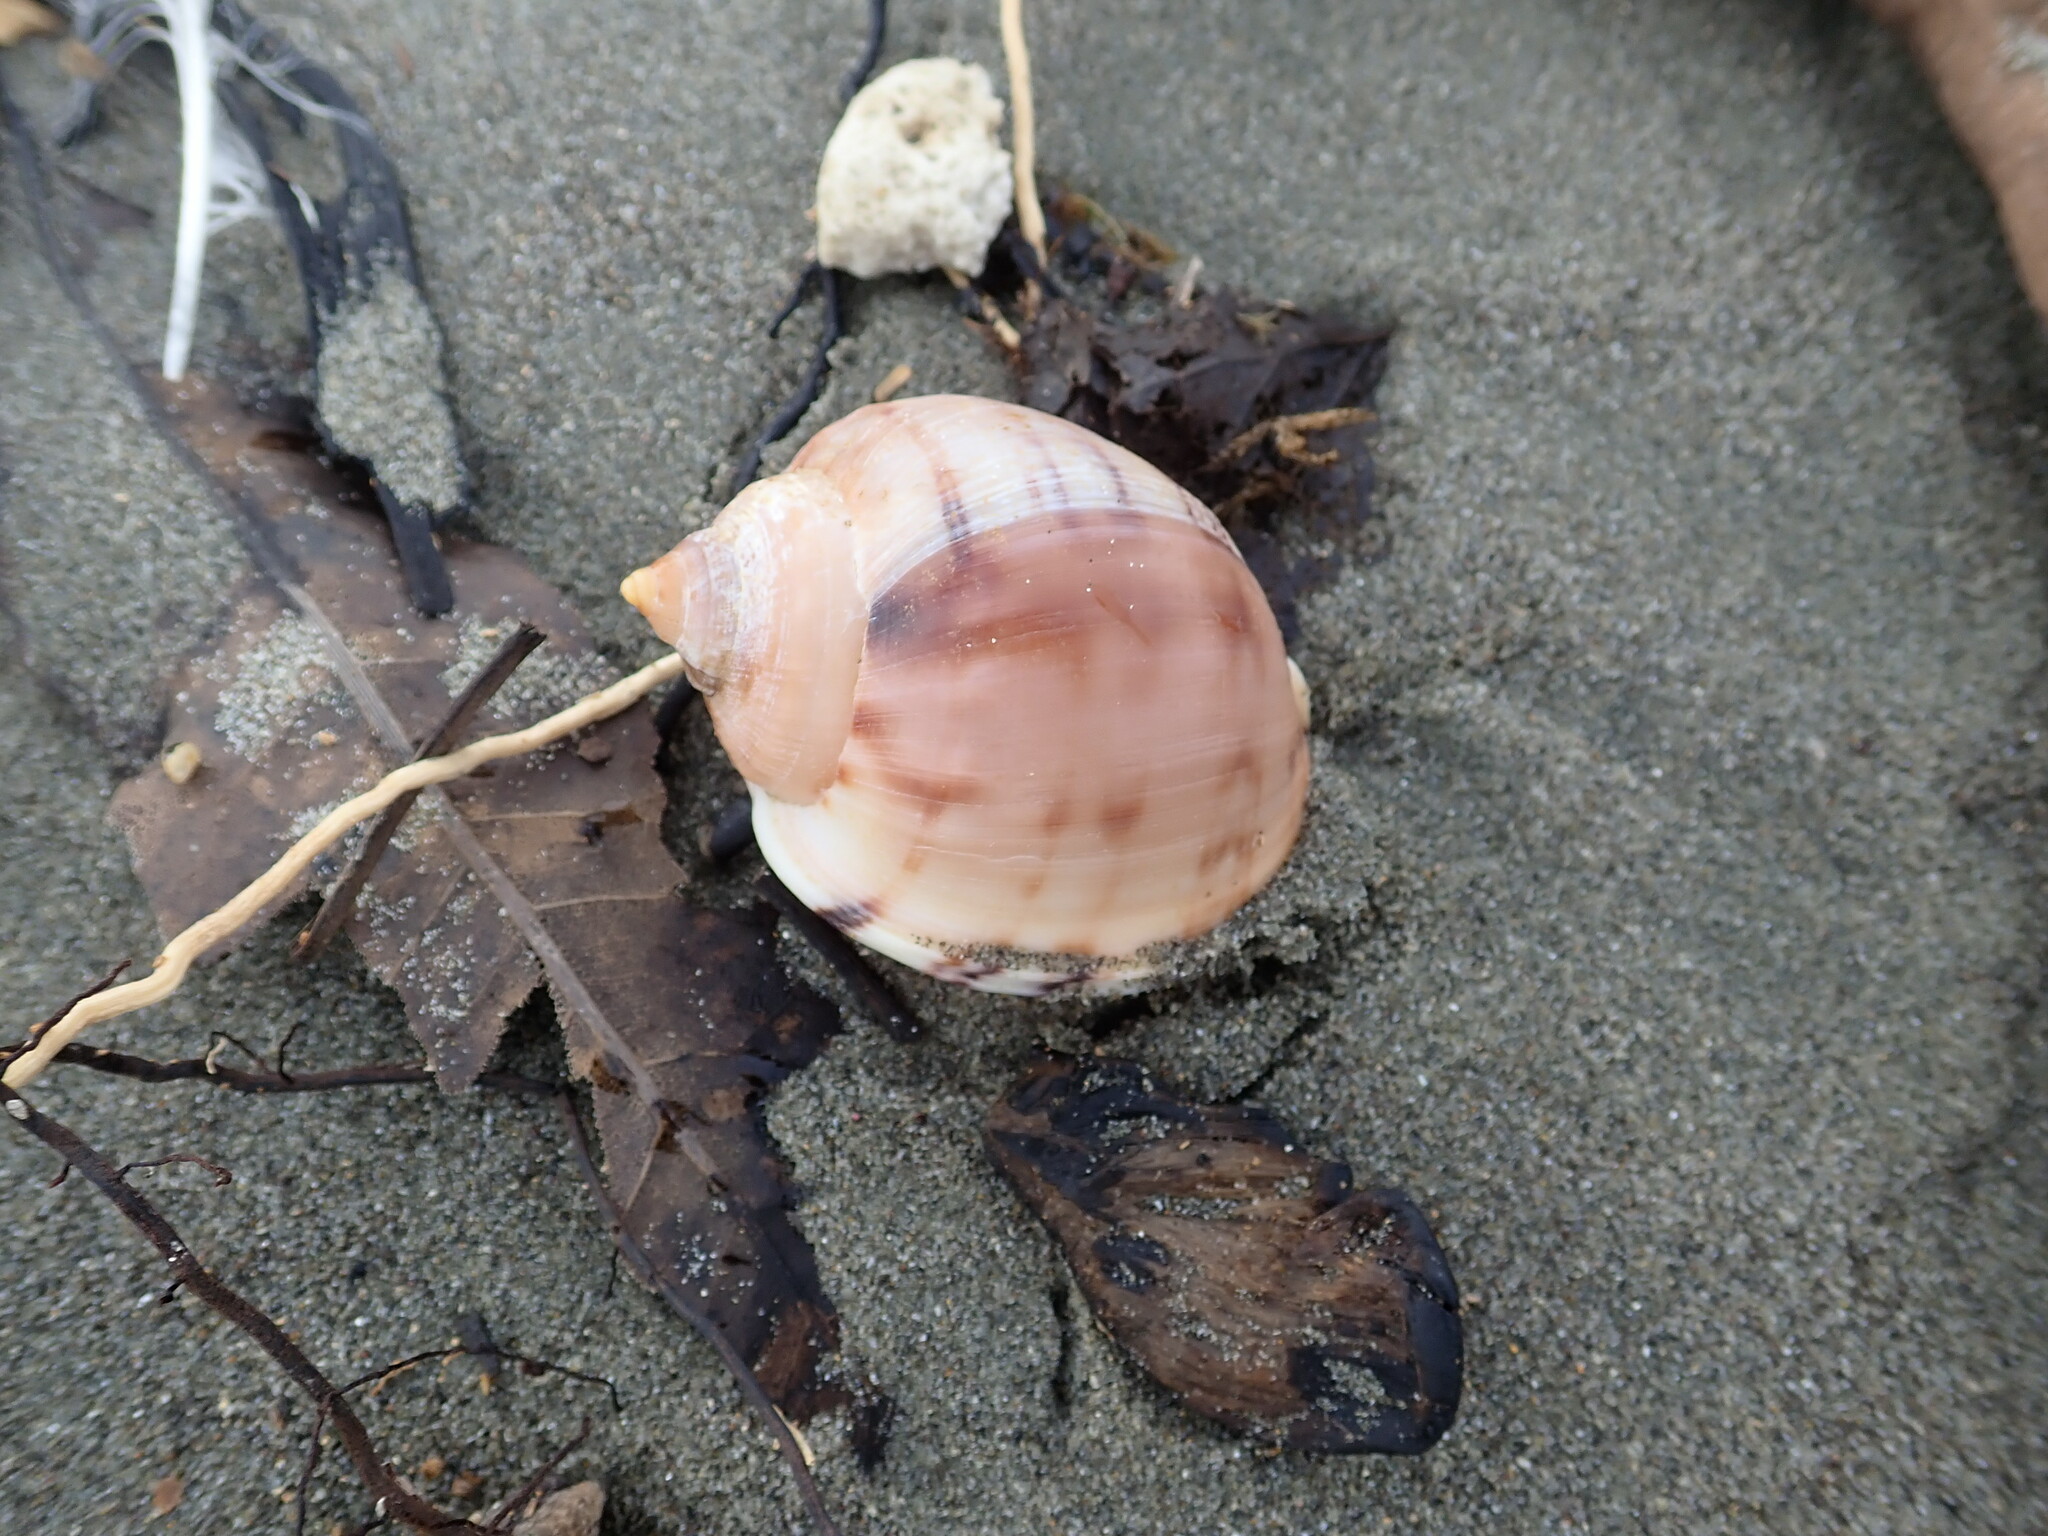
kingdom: Animalia
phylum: Mollusca
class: Gastropoda
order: Littorinimorpha
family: Cassidae
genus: Semicassis
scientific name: Semicassis pyrum
